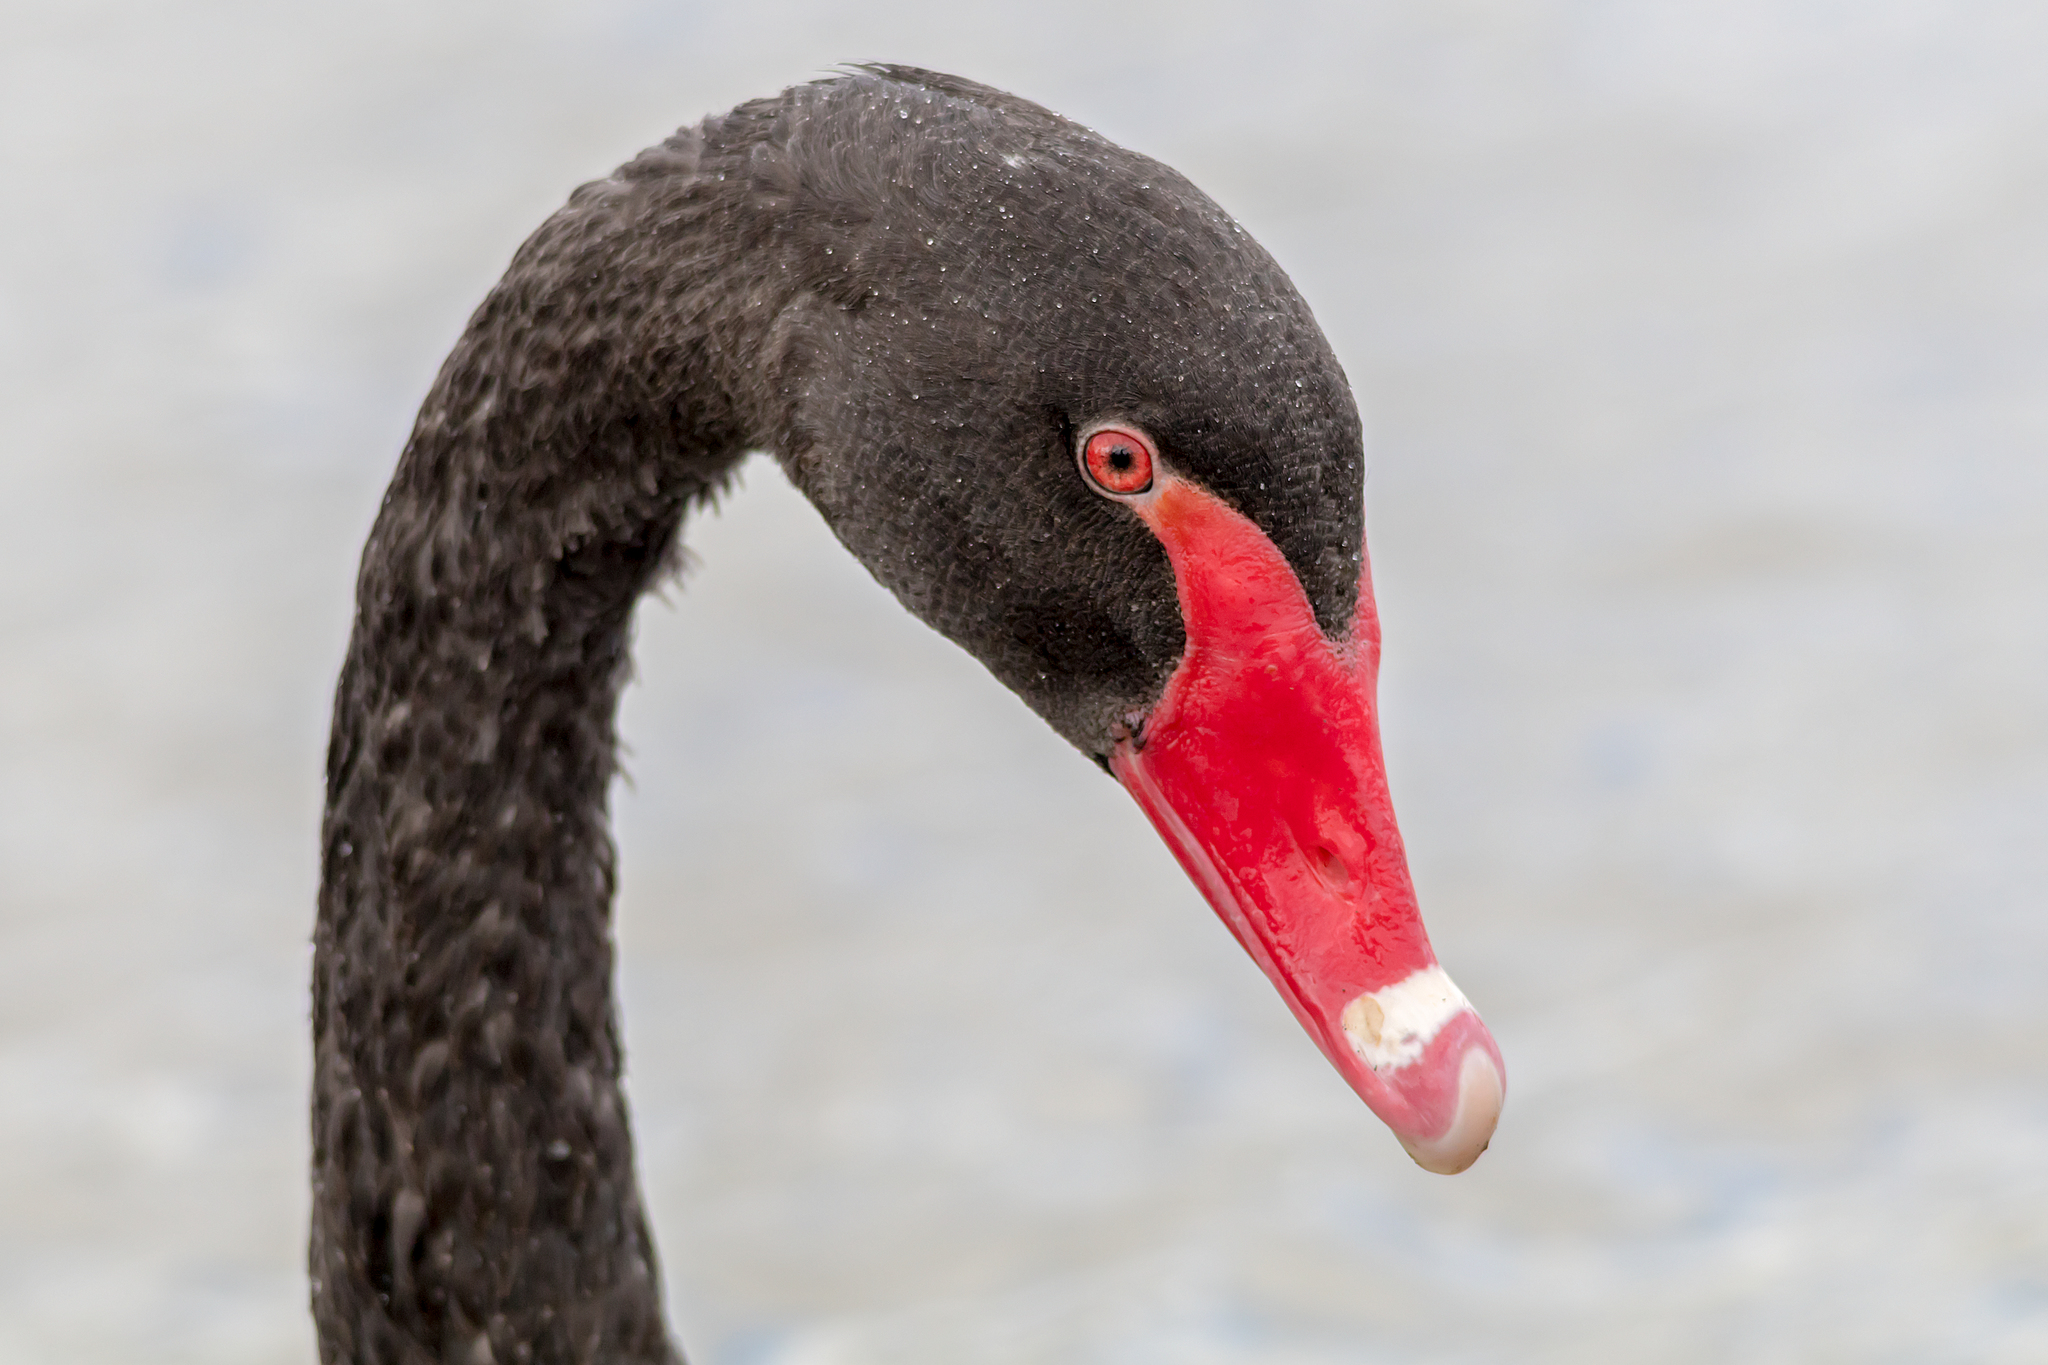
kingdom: Animalia
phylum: Chordata
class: Aves
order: Anseriformes
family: Anatidae
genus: Cygnus
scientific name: Cygnus atratus
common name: Black swan
